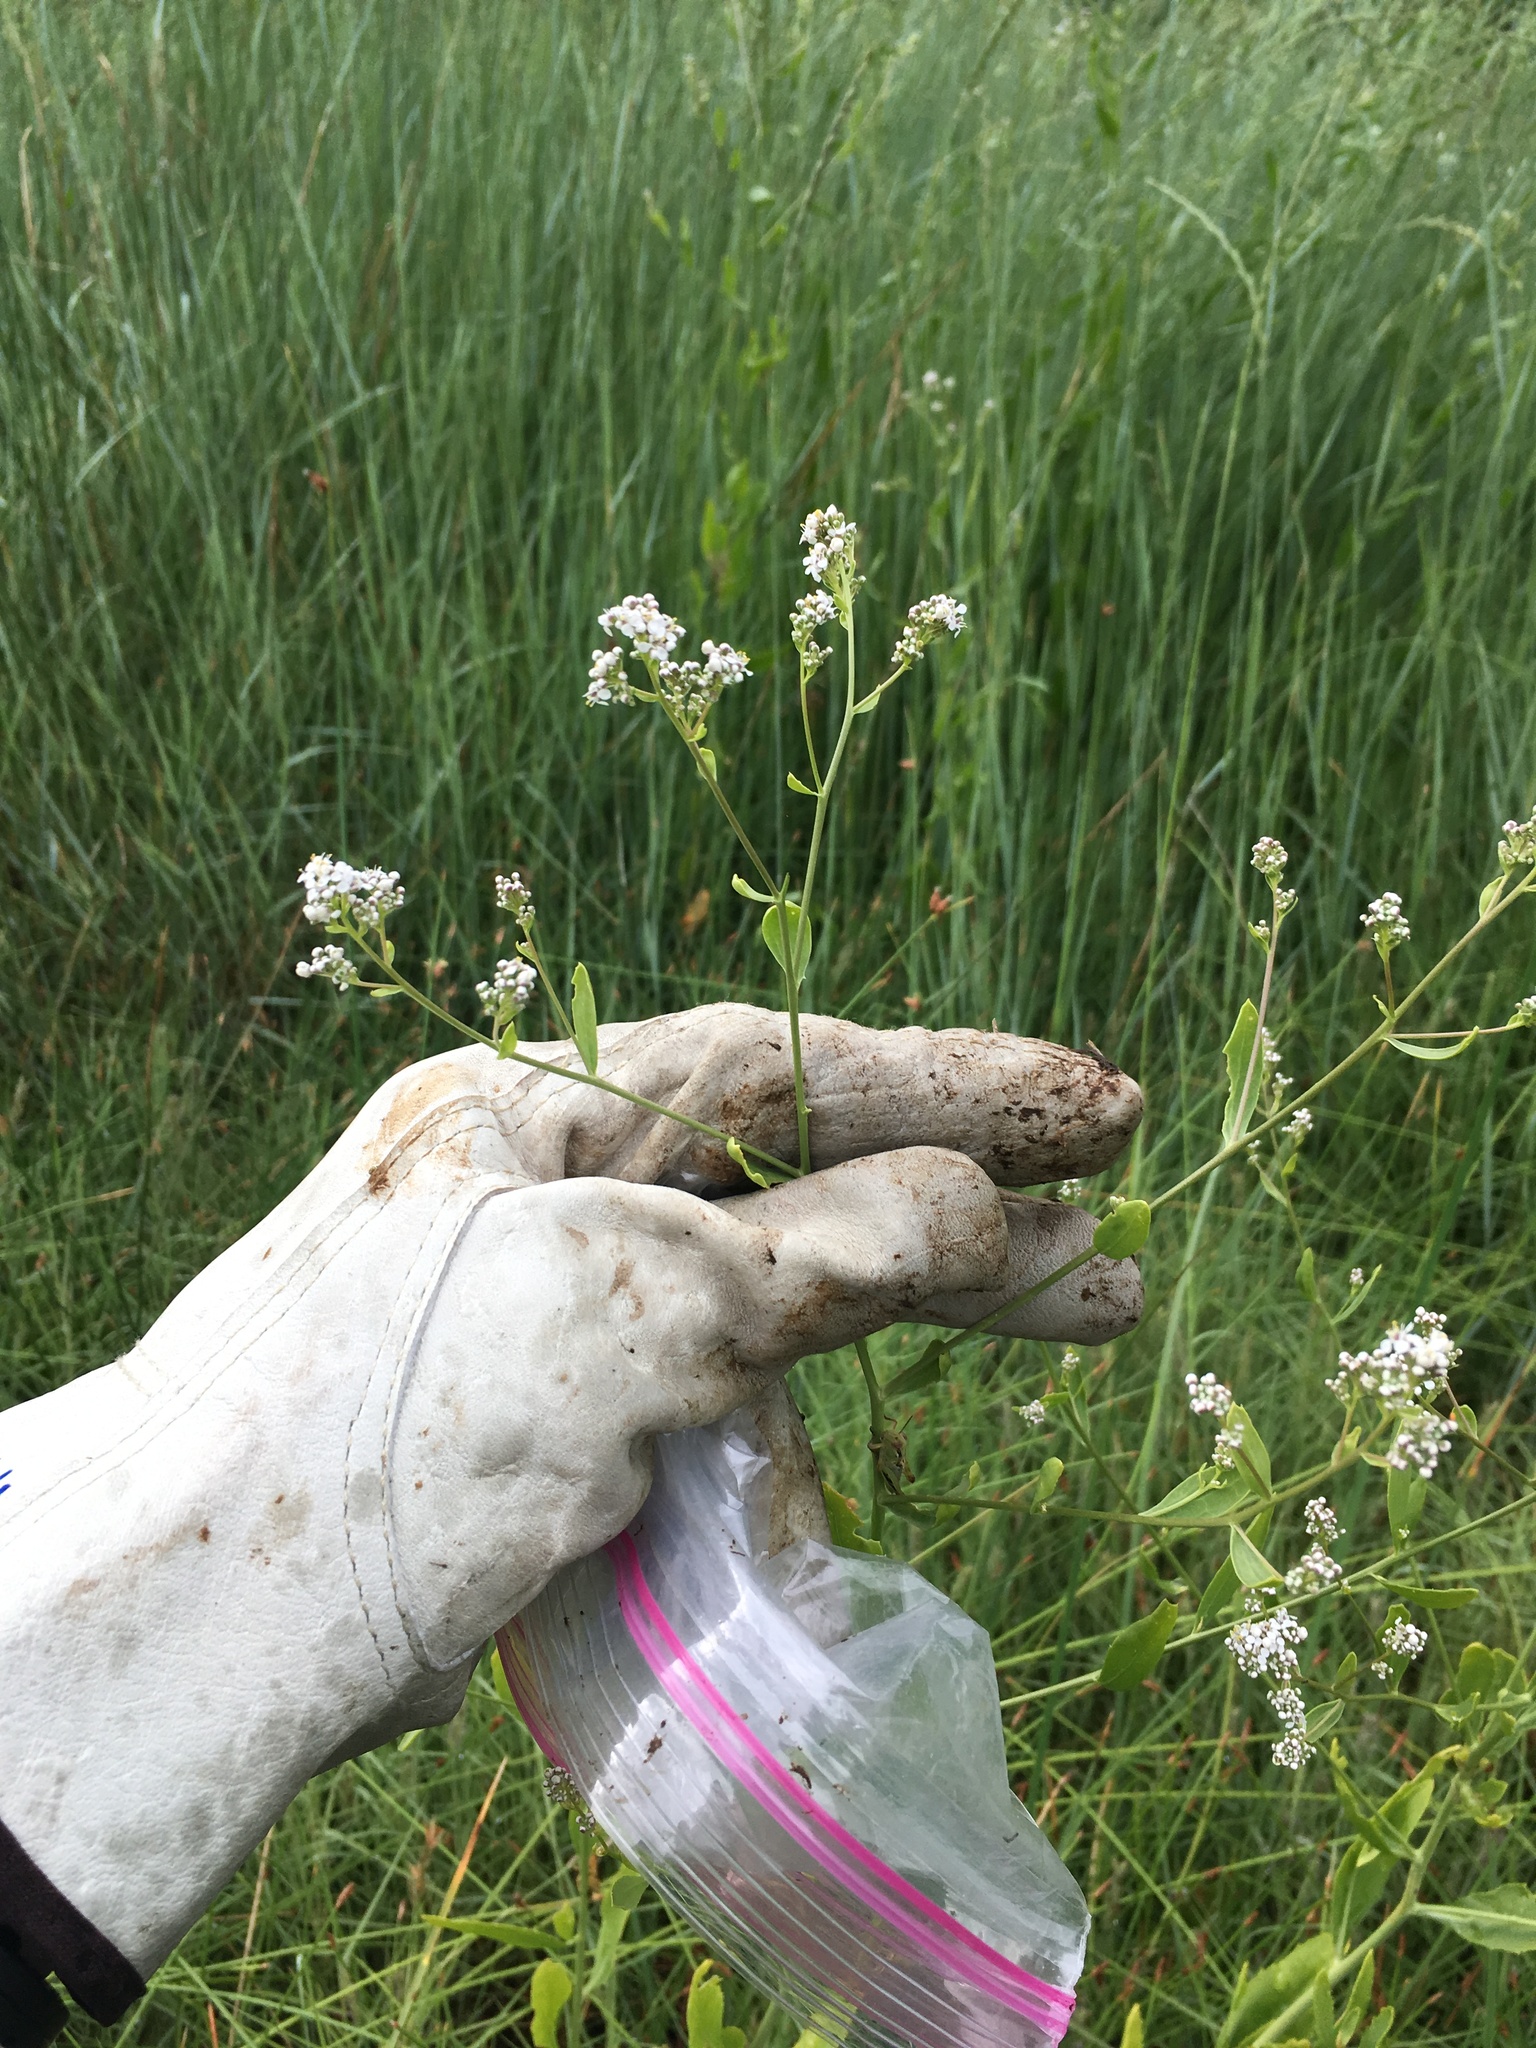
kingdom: Plantae
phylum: Tracheophyta
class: Magnoliopsida
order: Brassicales
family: Brassicaceae
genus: Lepidium
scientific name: Lepidium latifolium
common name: Dittander
